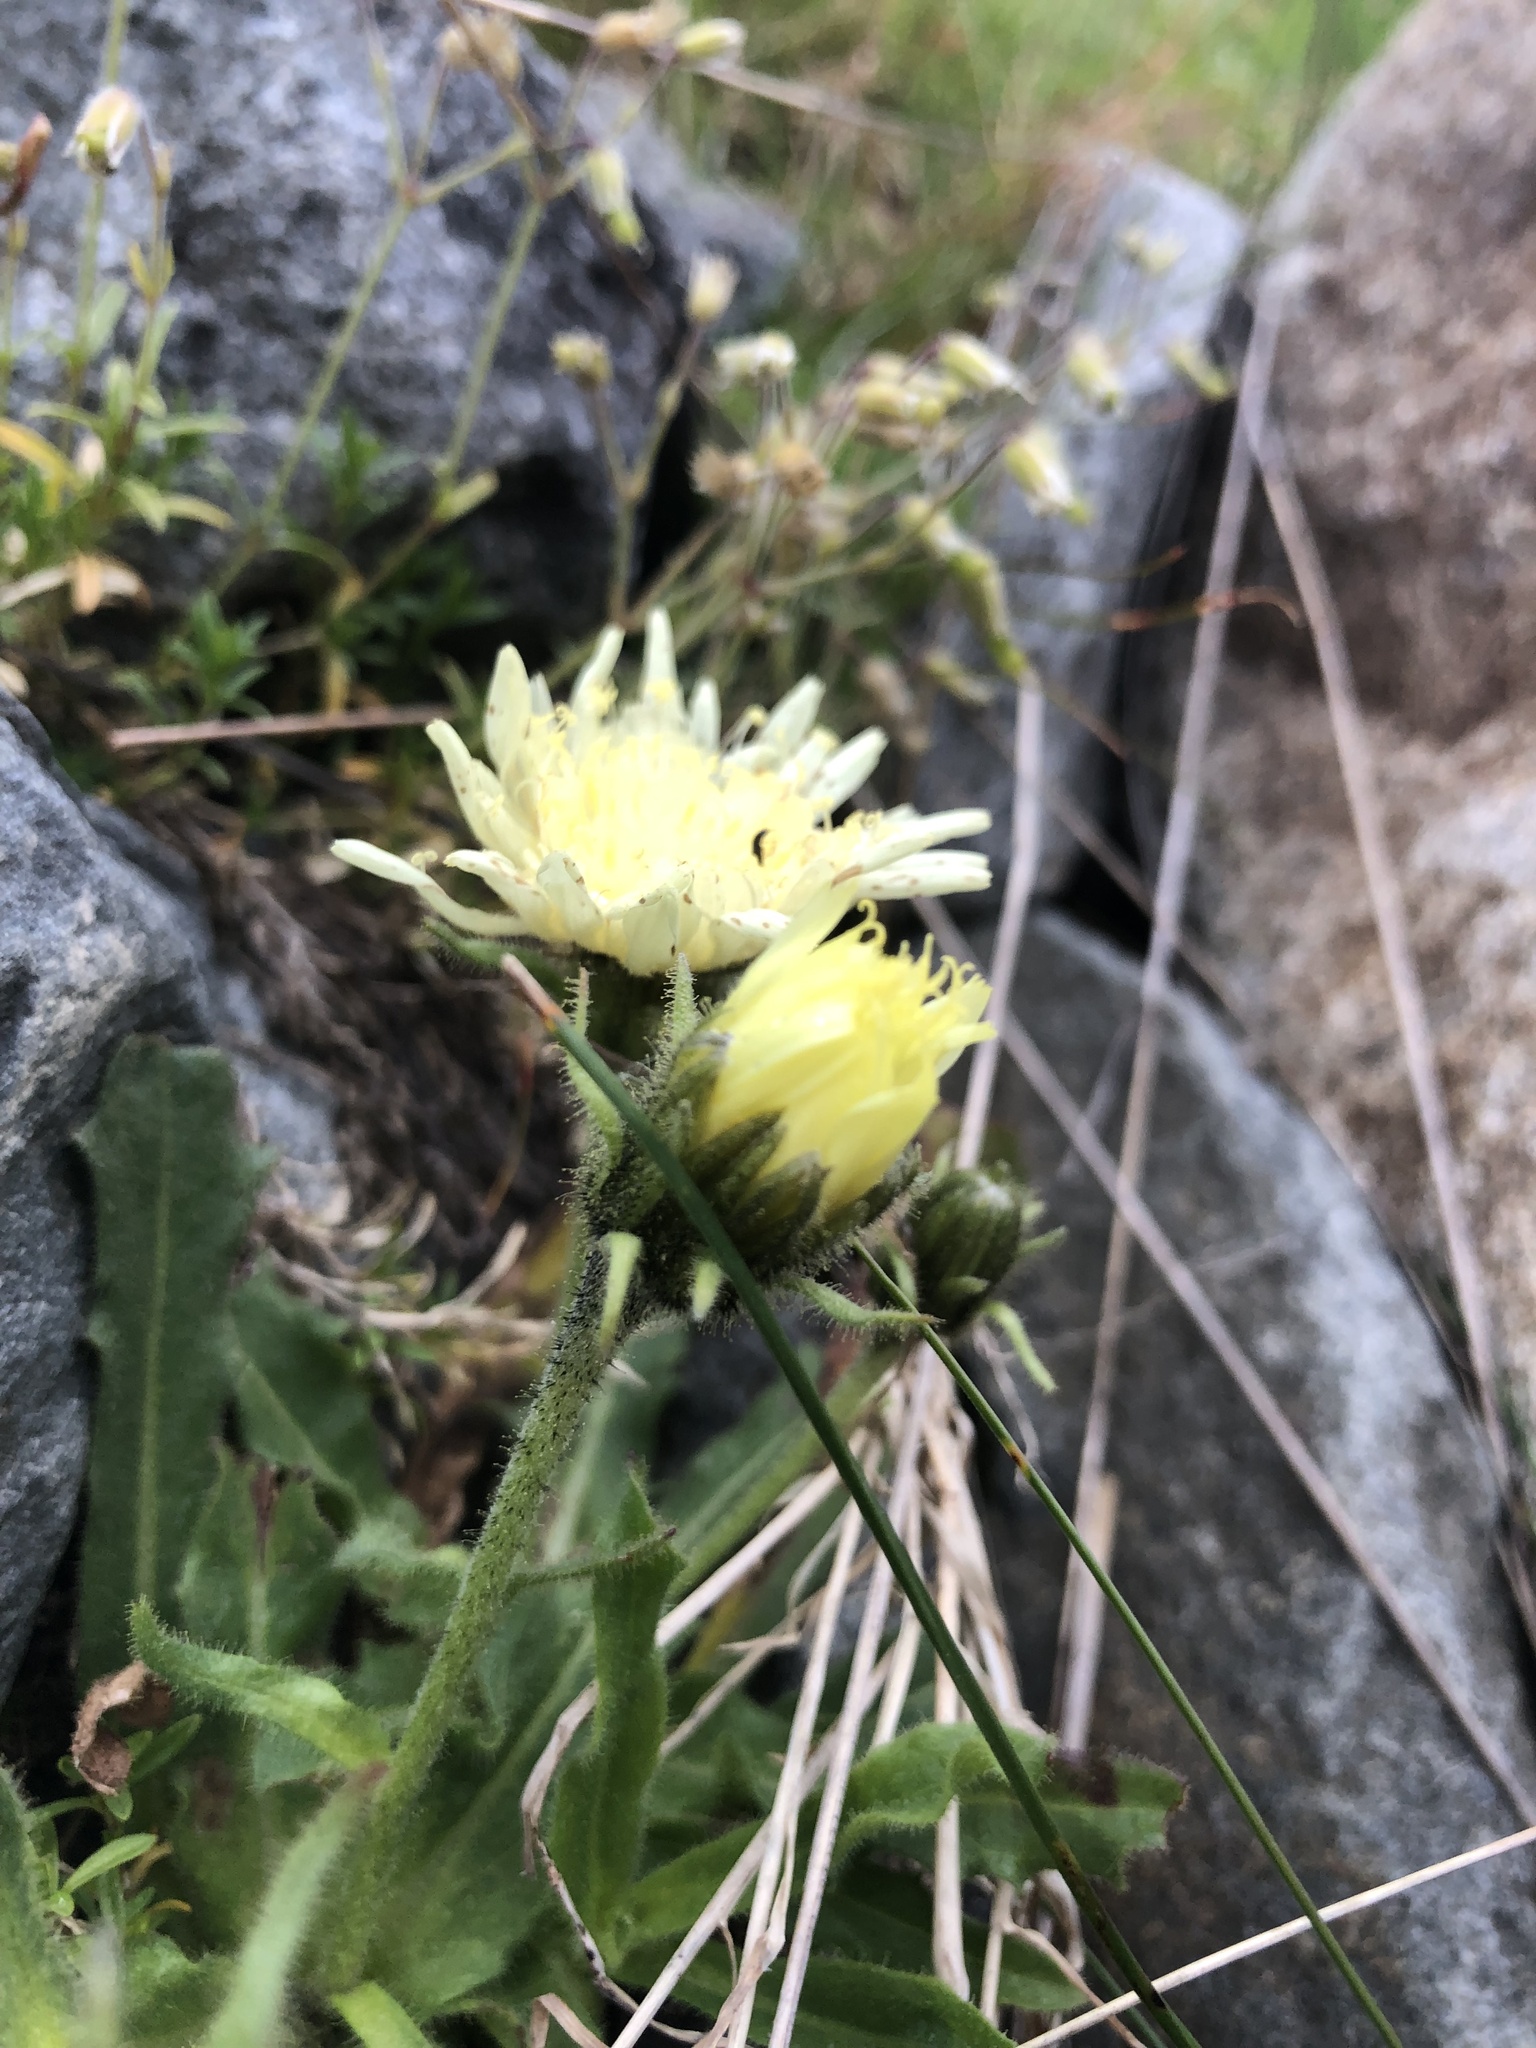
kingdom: Plantae
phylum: Tracheophyta
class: Magnoliopsida
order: Asterales
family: Asteraceae
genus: Schlagintweitia
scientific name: Schlagintweitia intybacea
